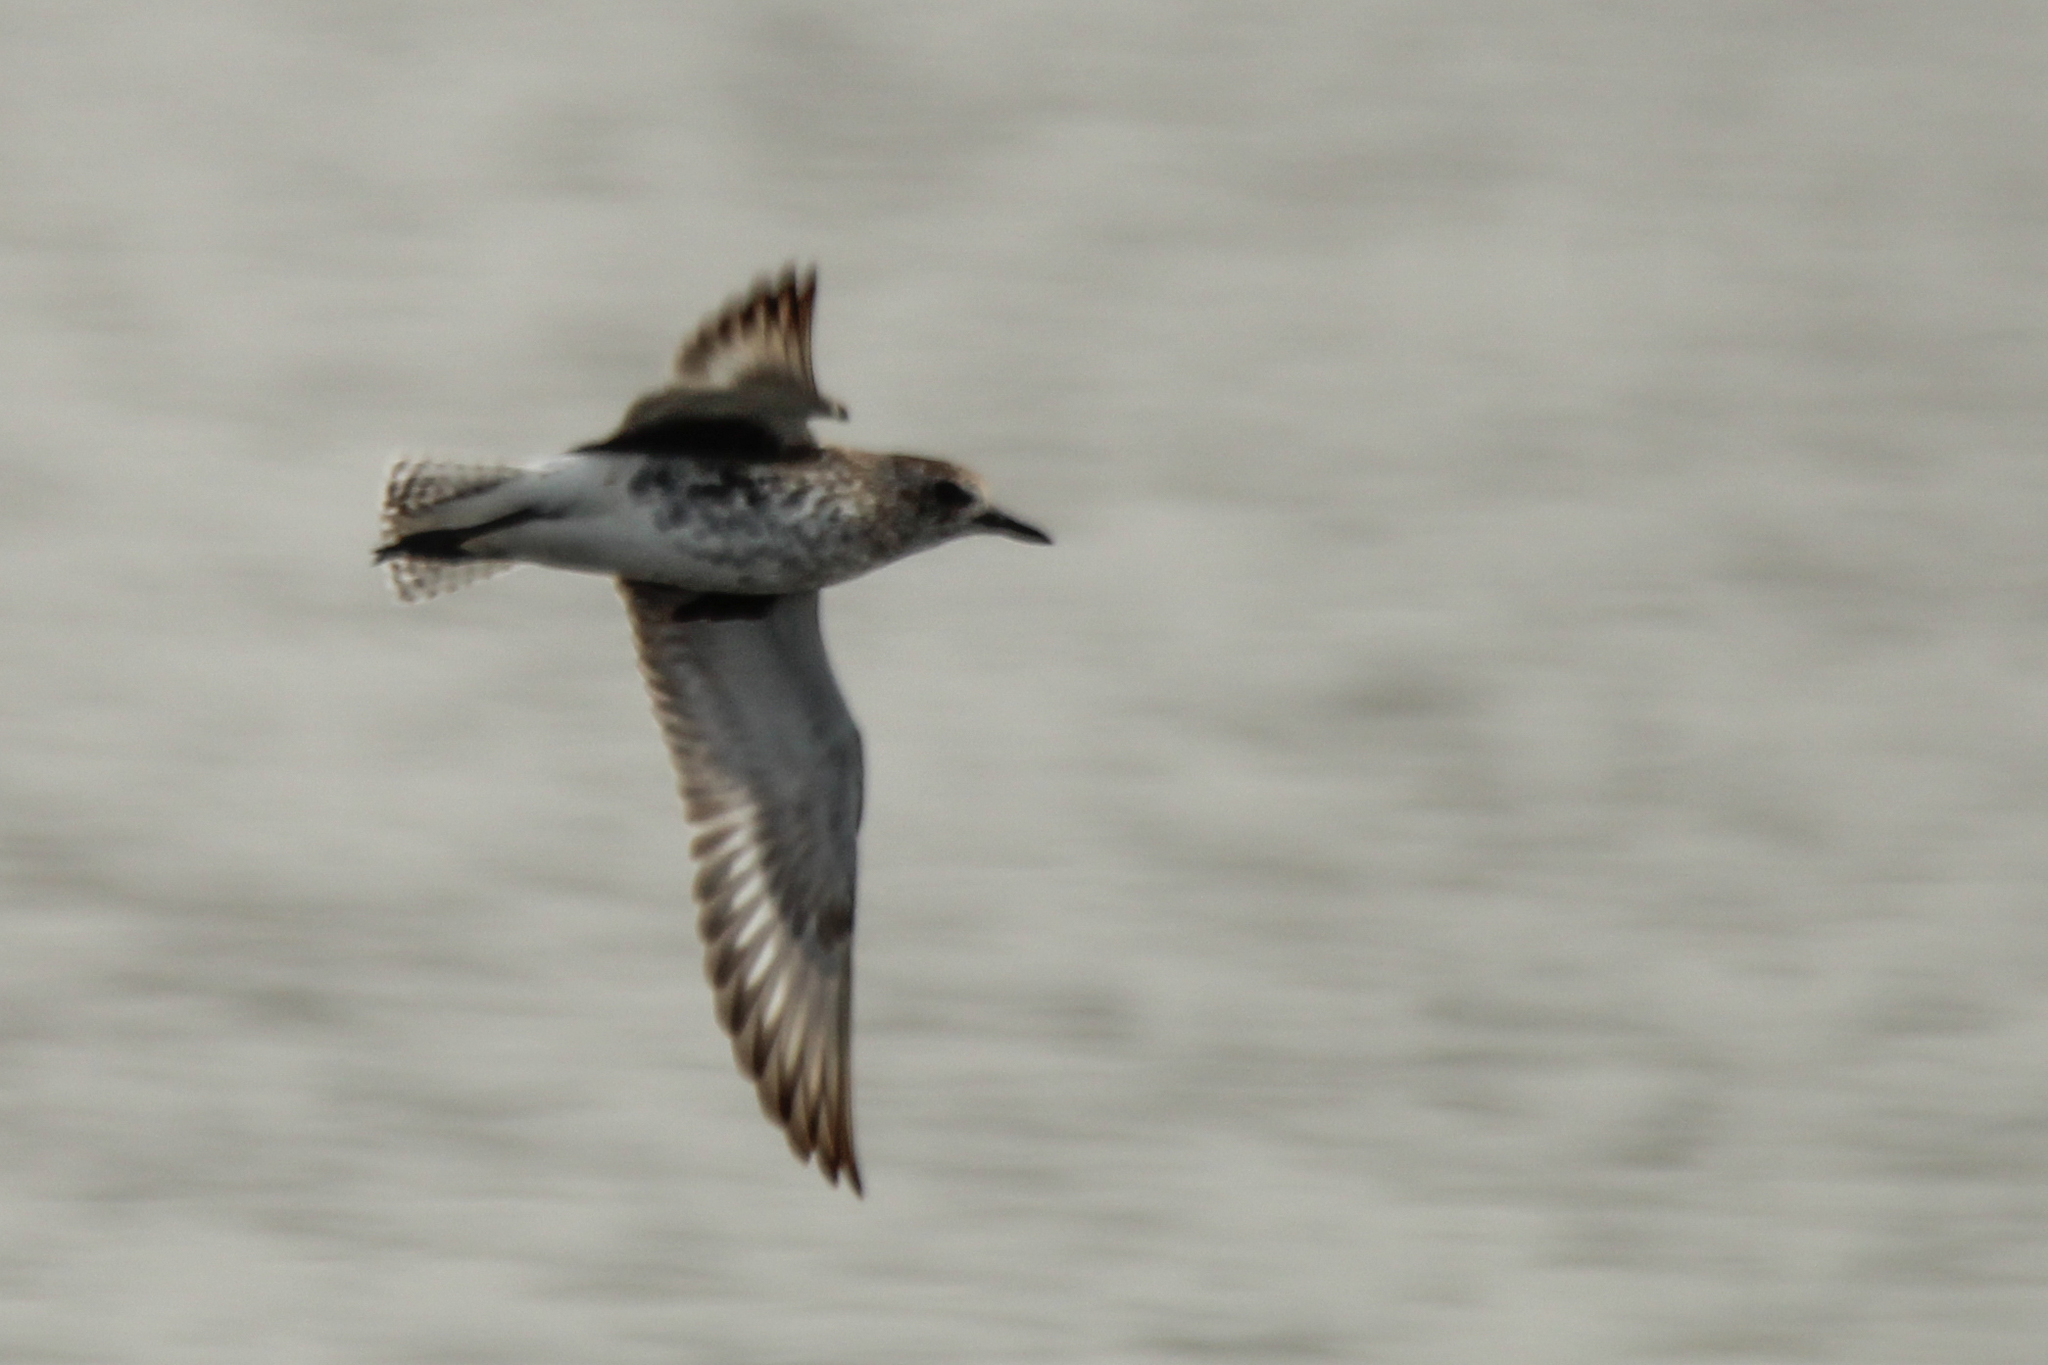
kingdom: Animalia
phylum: Chordata
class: Aves
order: Charadriiformes
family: Charadriidae
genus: Pluvialis
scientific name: Pluvialis squatarola
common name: Grey plover
